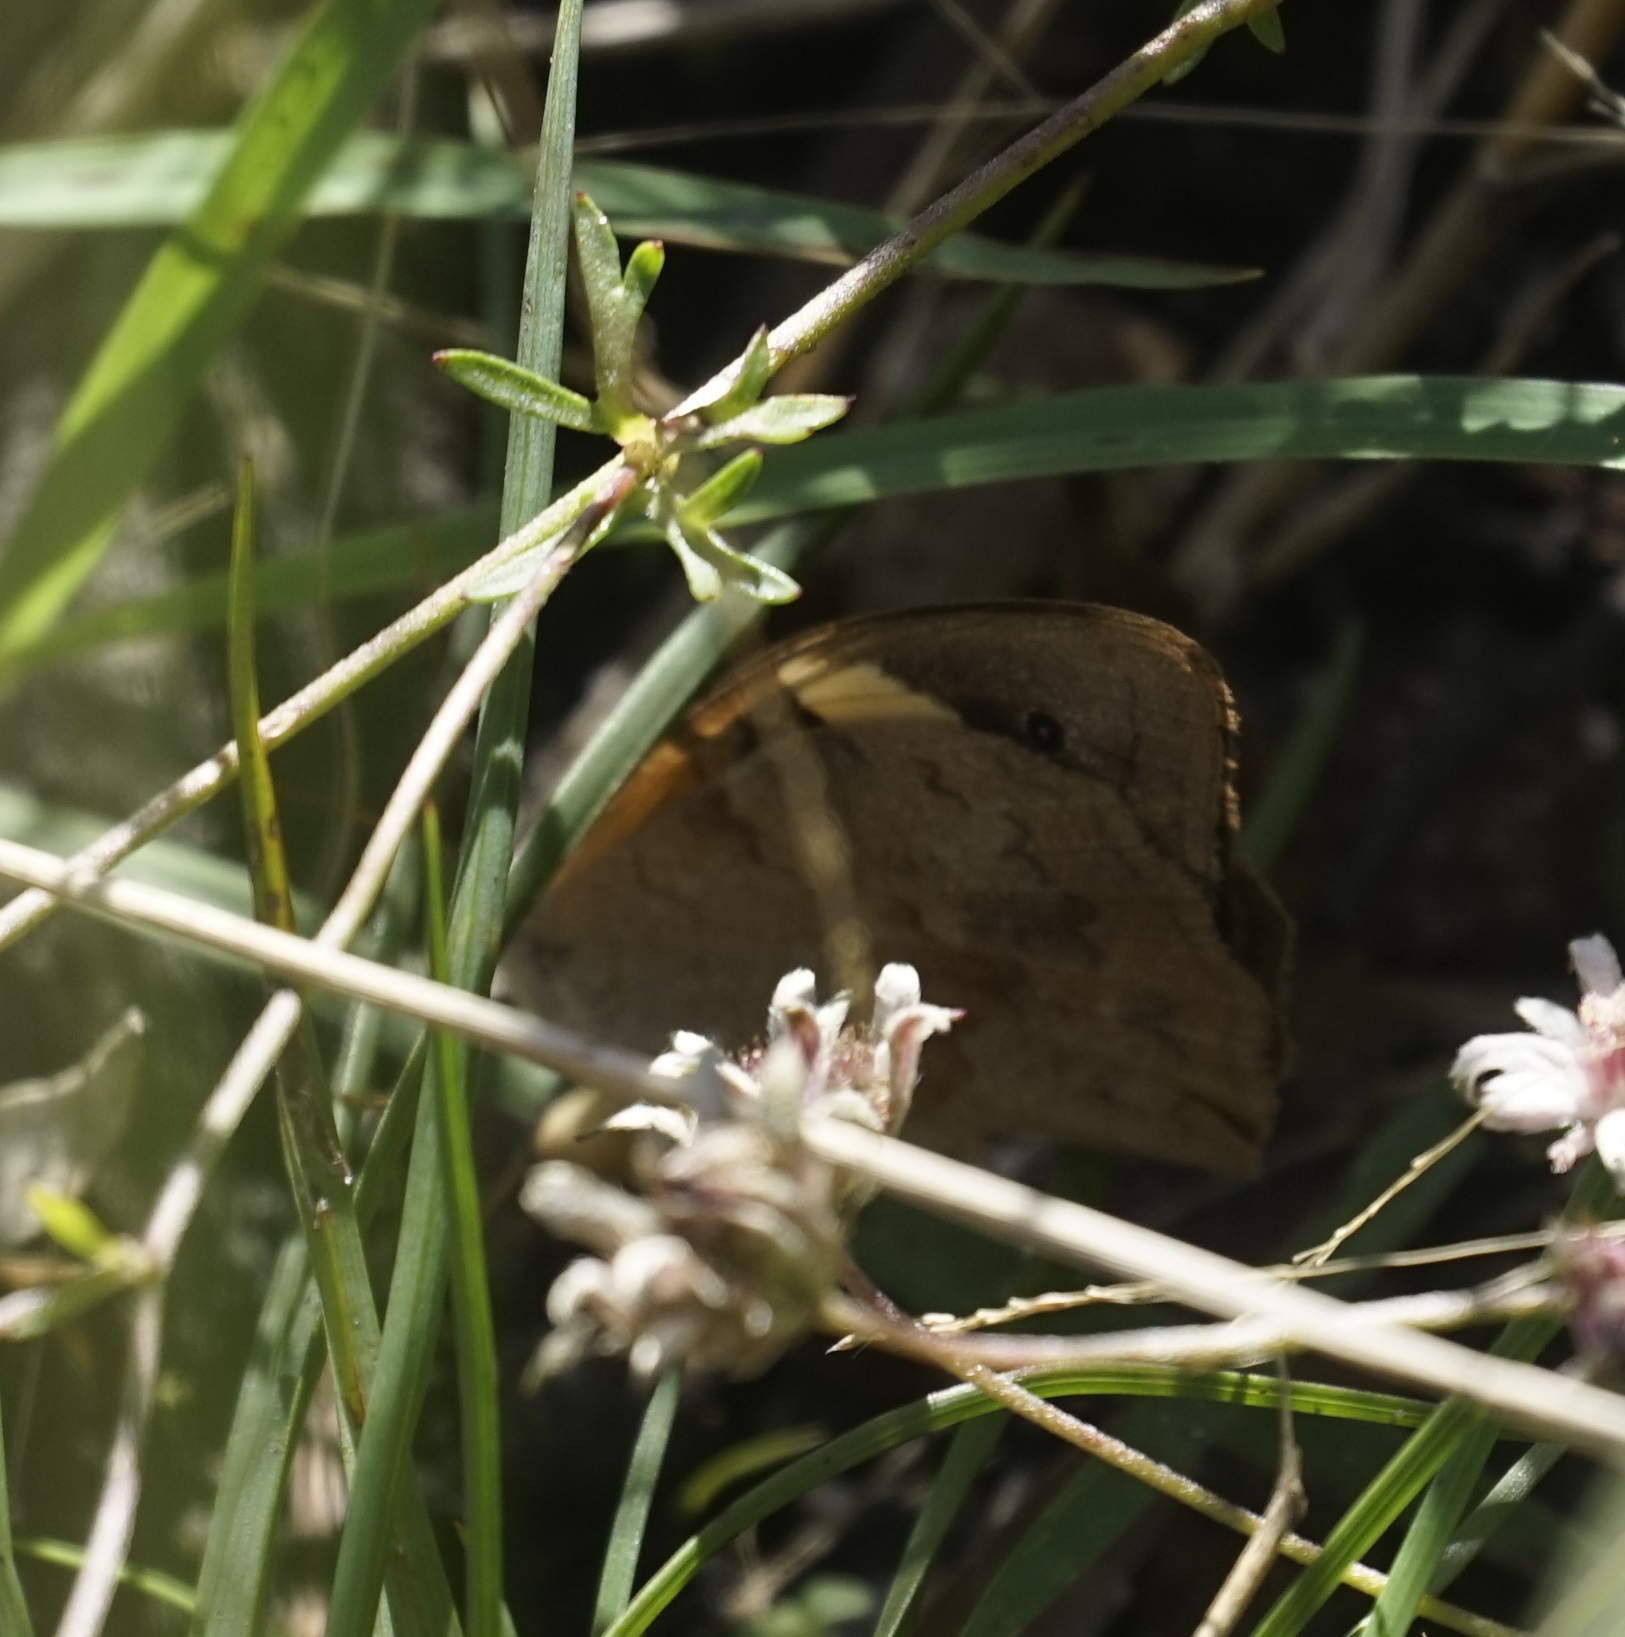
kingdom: Animalia
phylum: Arthropoda
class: Insecta
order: Lepidoptera
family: Nymphalidae
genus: Heteronympha
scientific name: Heteronympha merope
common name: Common brown
